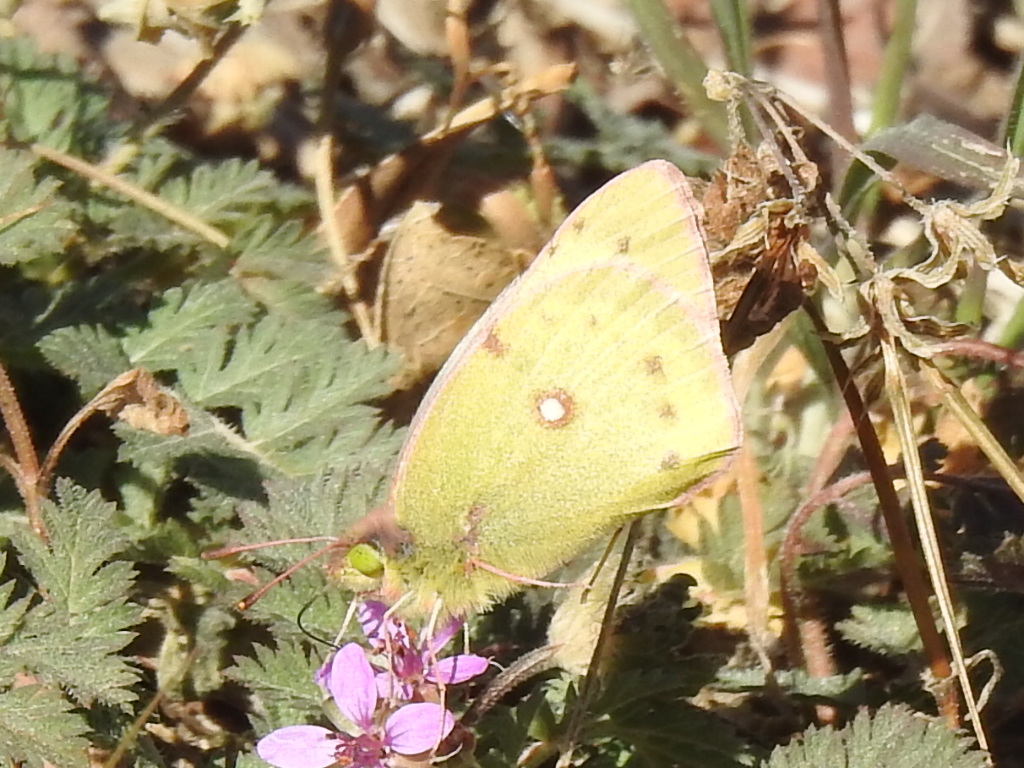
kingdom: Animalia
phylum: Arthropoda
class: Insecta
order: Lepidoptera
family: Pieridae
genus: Colias
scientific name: Colias eurytheme
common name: Alfalfa butterfly
